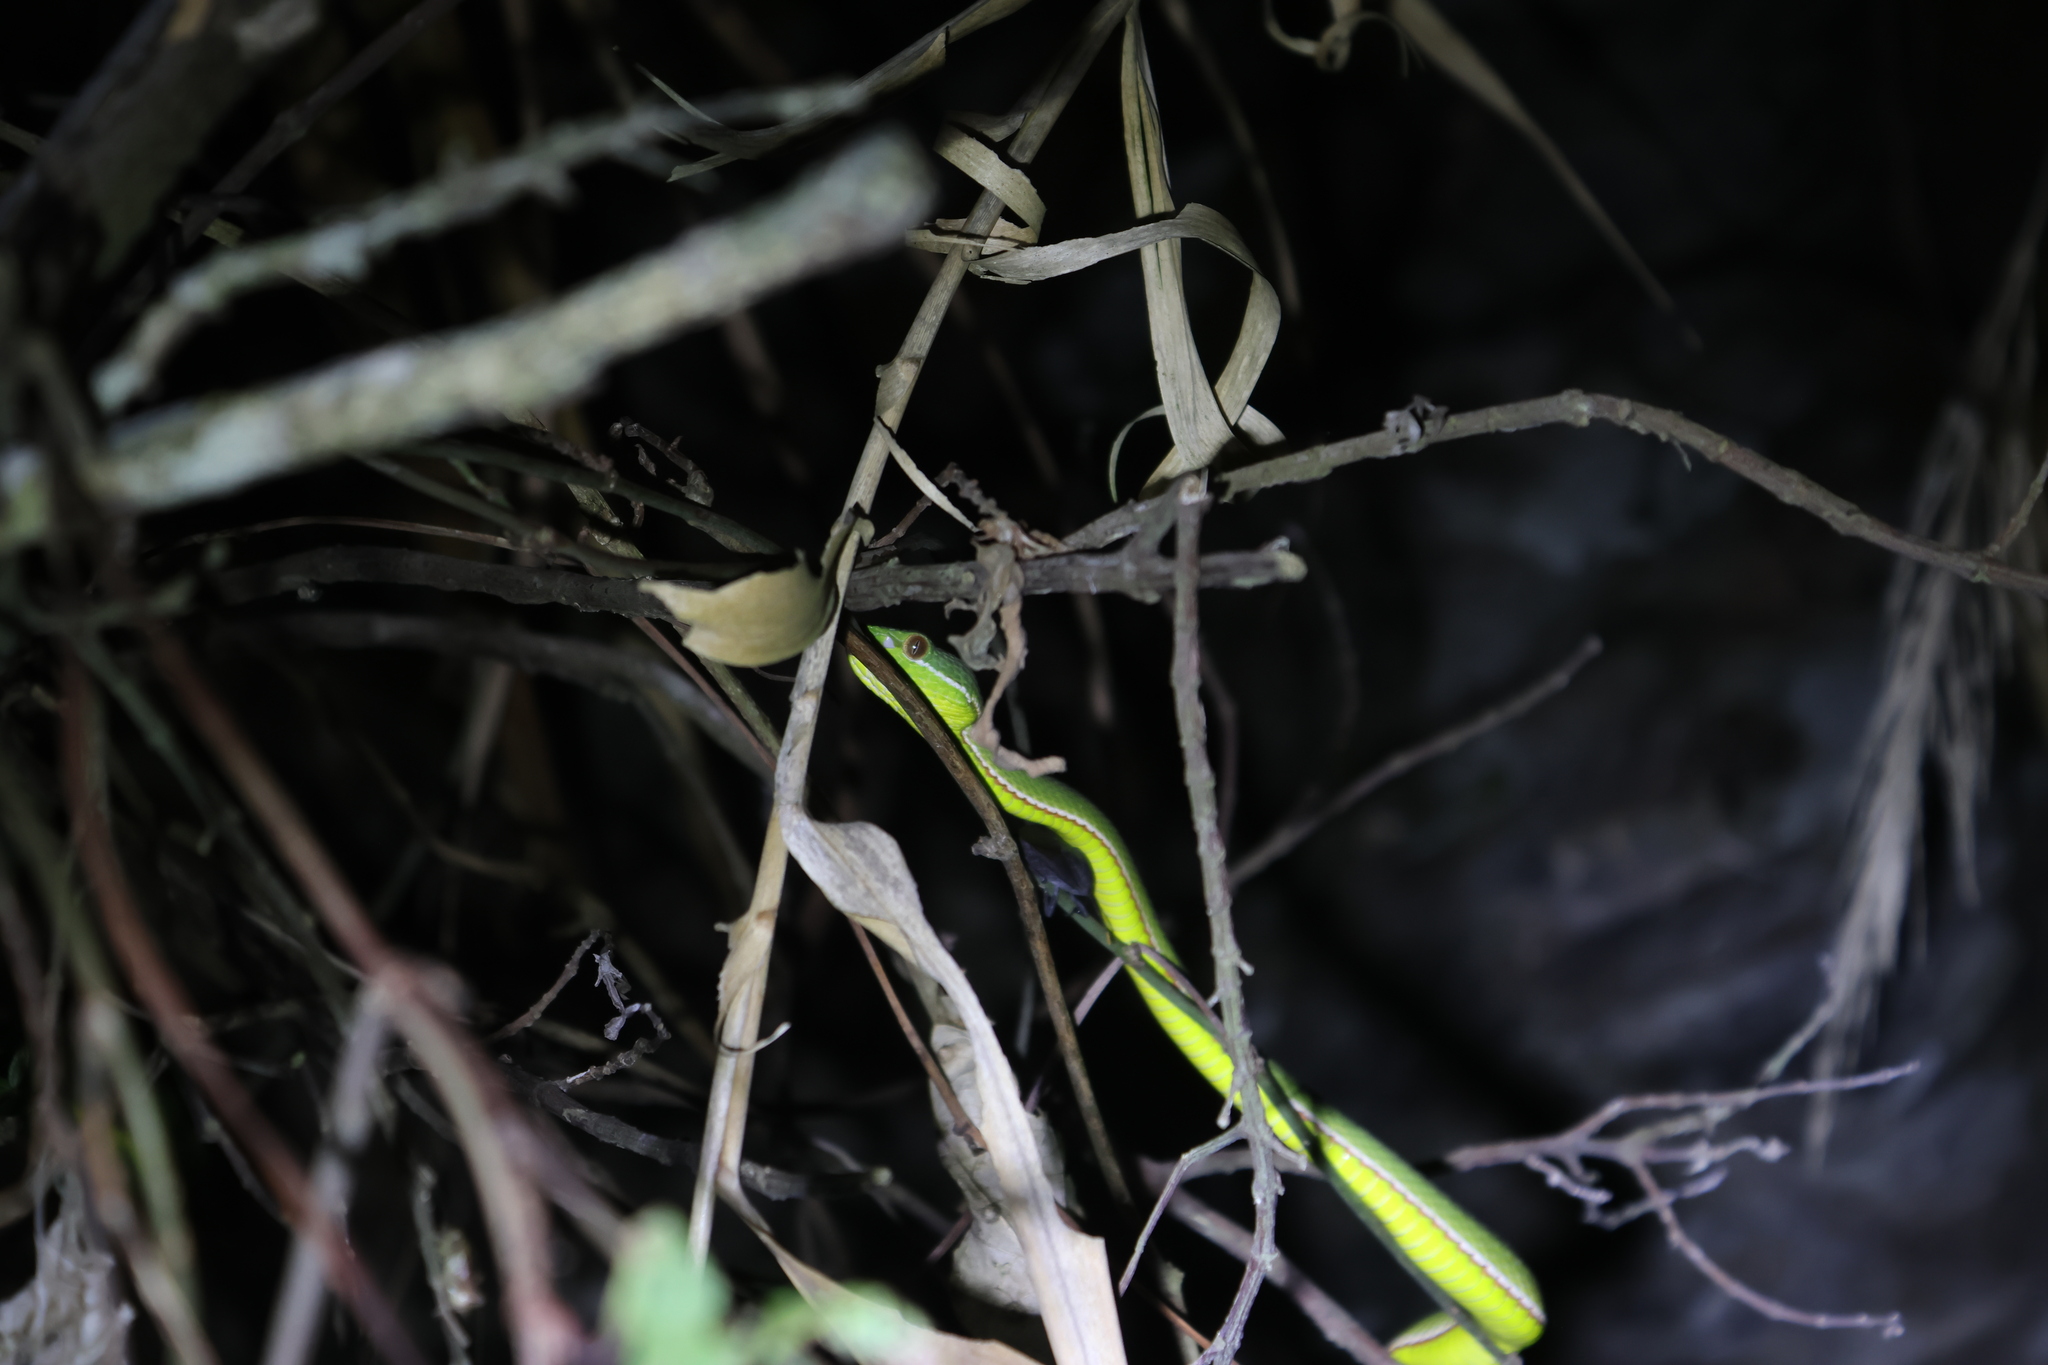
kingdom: Animalia
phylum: Chordata
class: Squamata
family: Viperidae
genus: Trimeresurus
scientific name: Trimeresurus stejnegeri
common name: Chen’s bamboo pit viper
